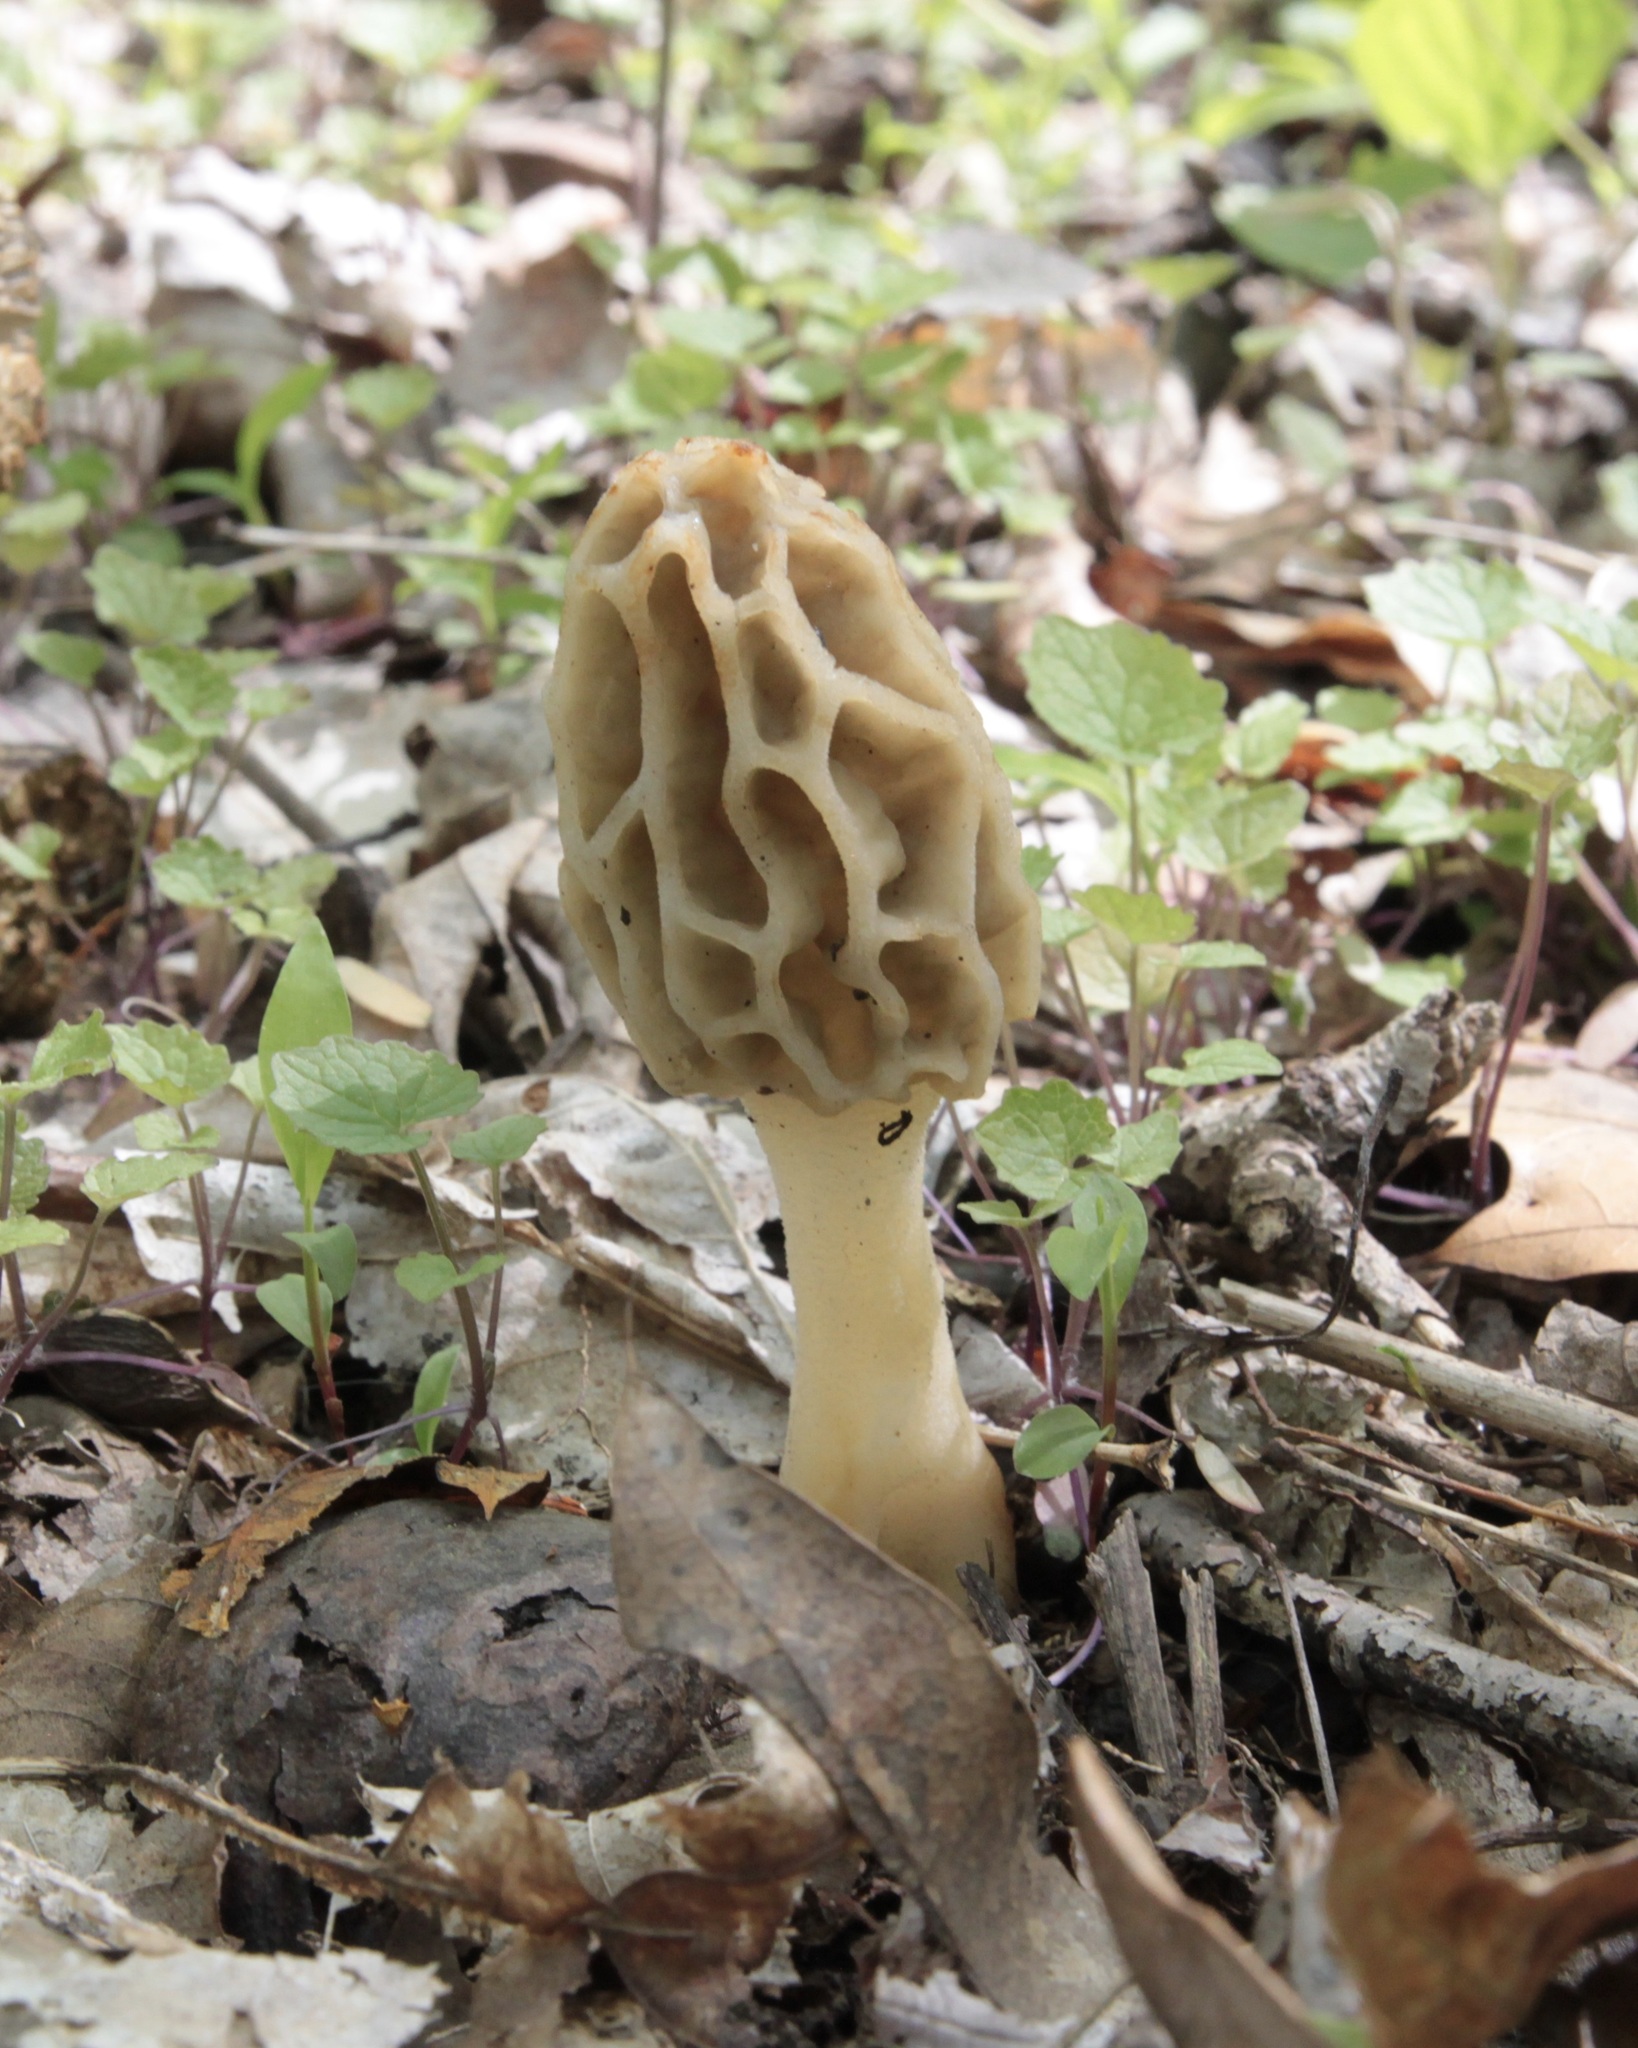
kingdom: Fungi
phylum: Ascomycota
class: Pezizomycetes
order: Pezizales
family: Morchellaceae
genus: Morchella
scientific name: Morchella diminutiva
